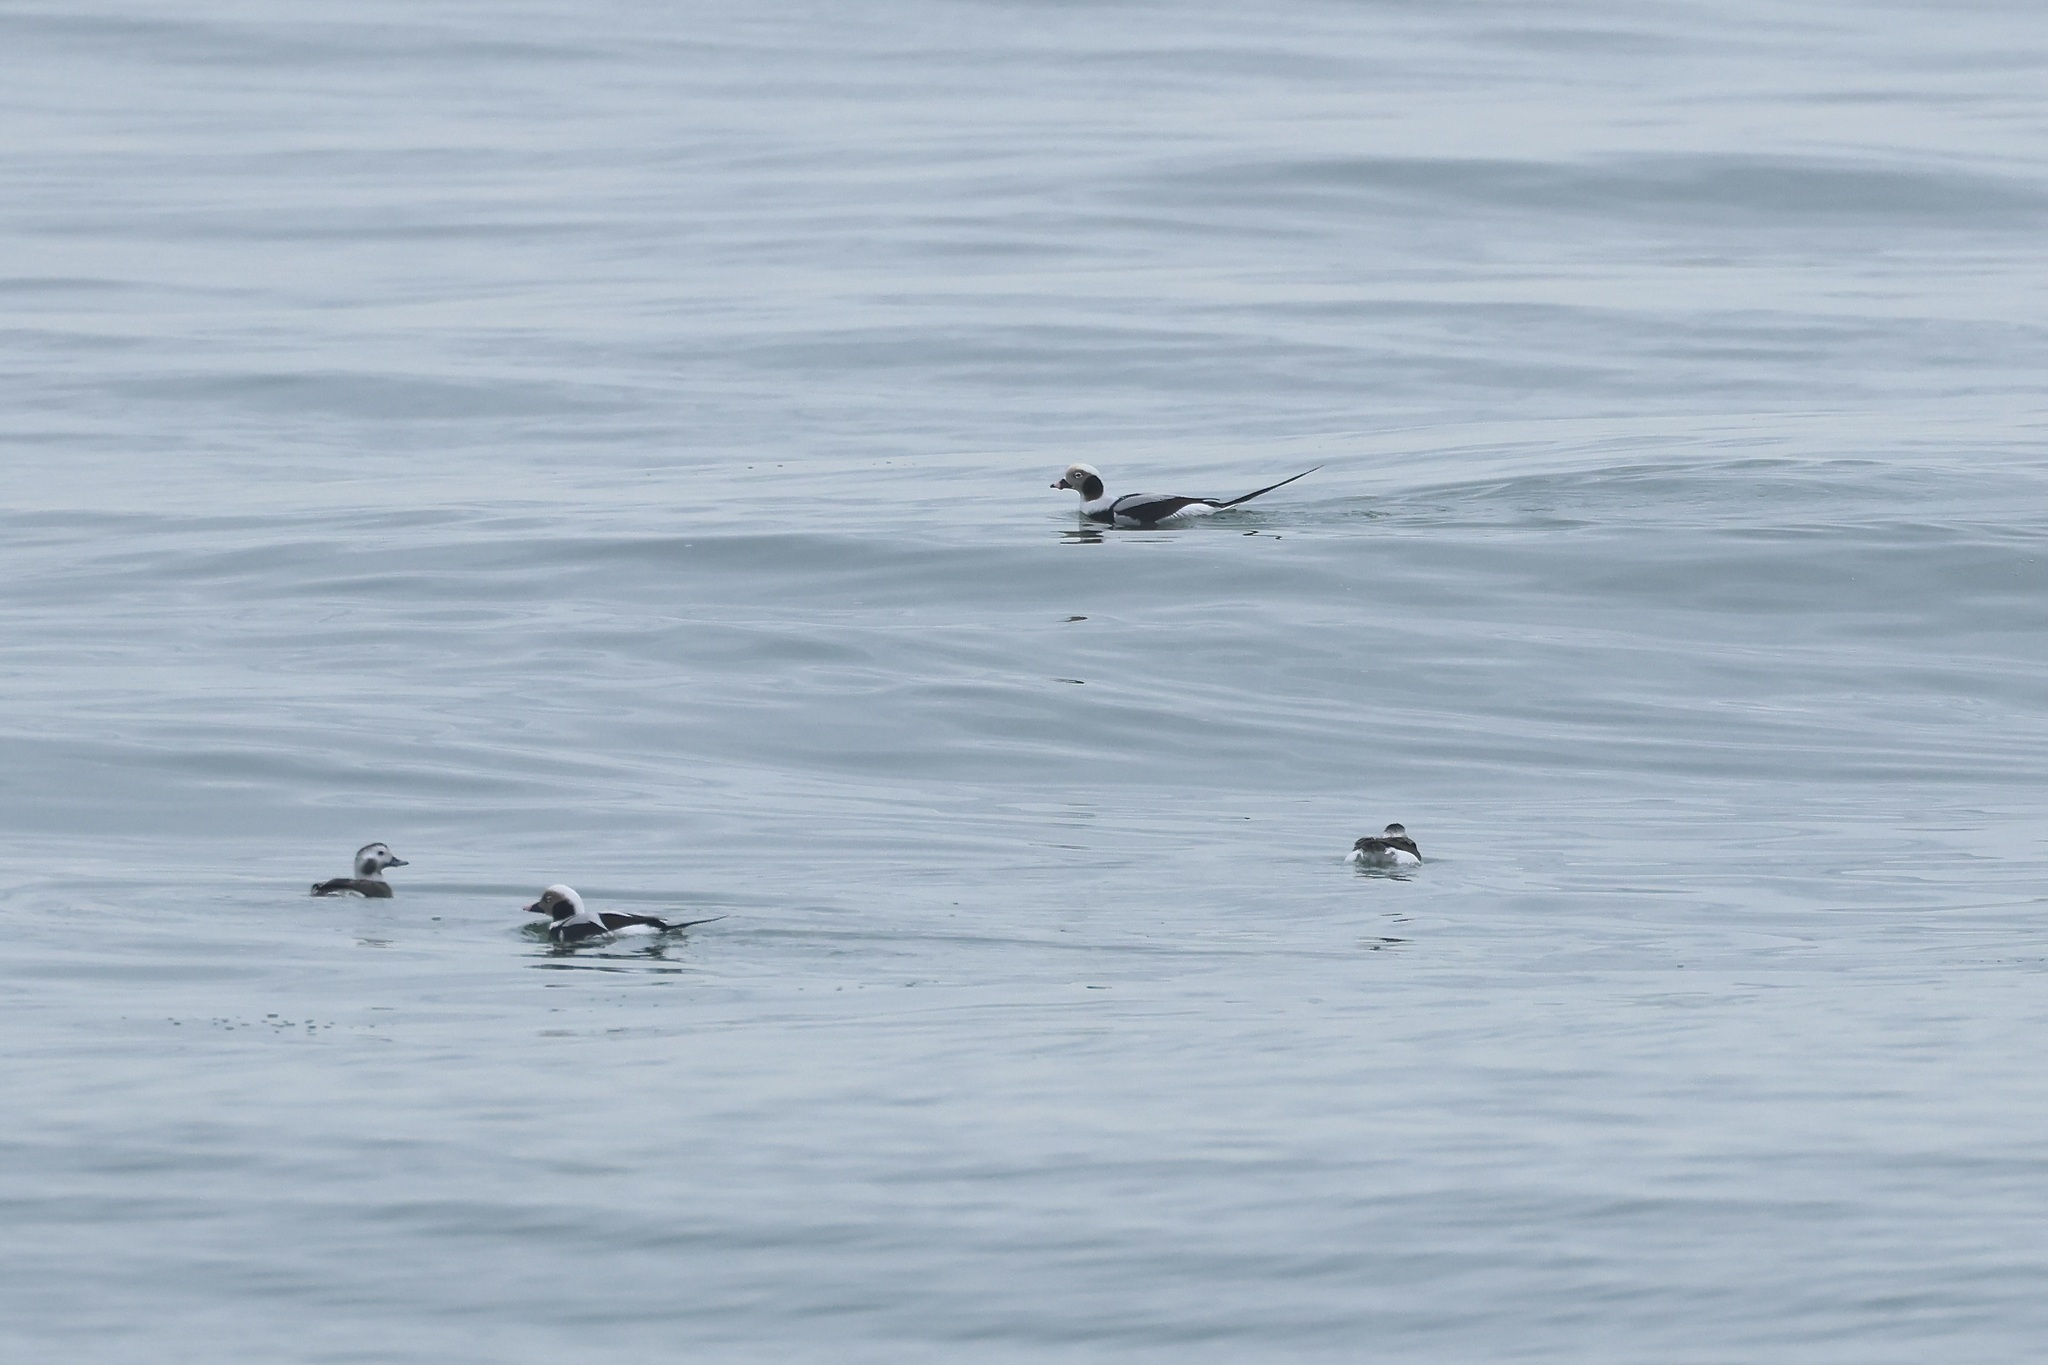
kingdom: Animalia
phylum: Chordata
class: Aves
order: Anseriformes
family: Anatidae
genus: Clangula
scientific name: Clangula hyemalis
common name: Long-tailed duck
